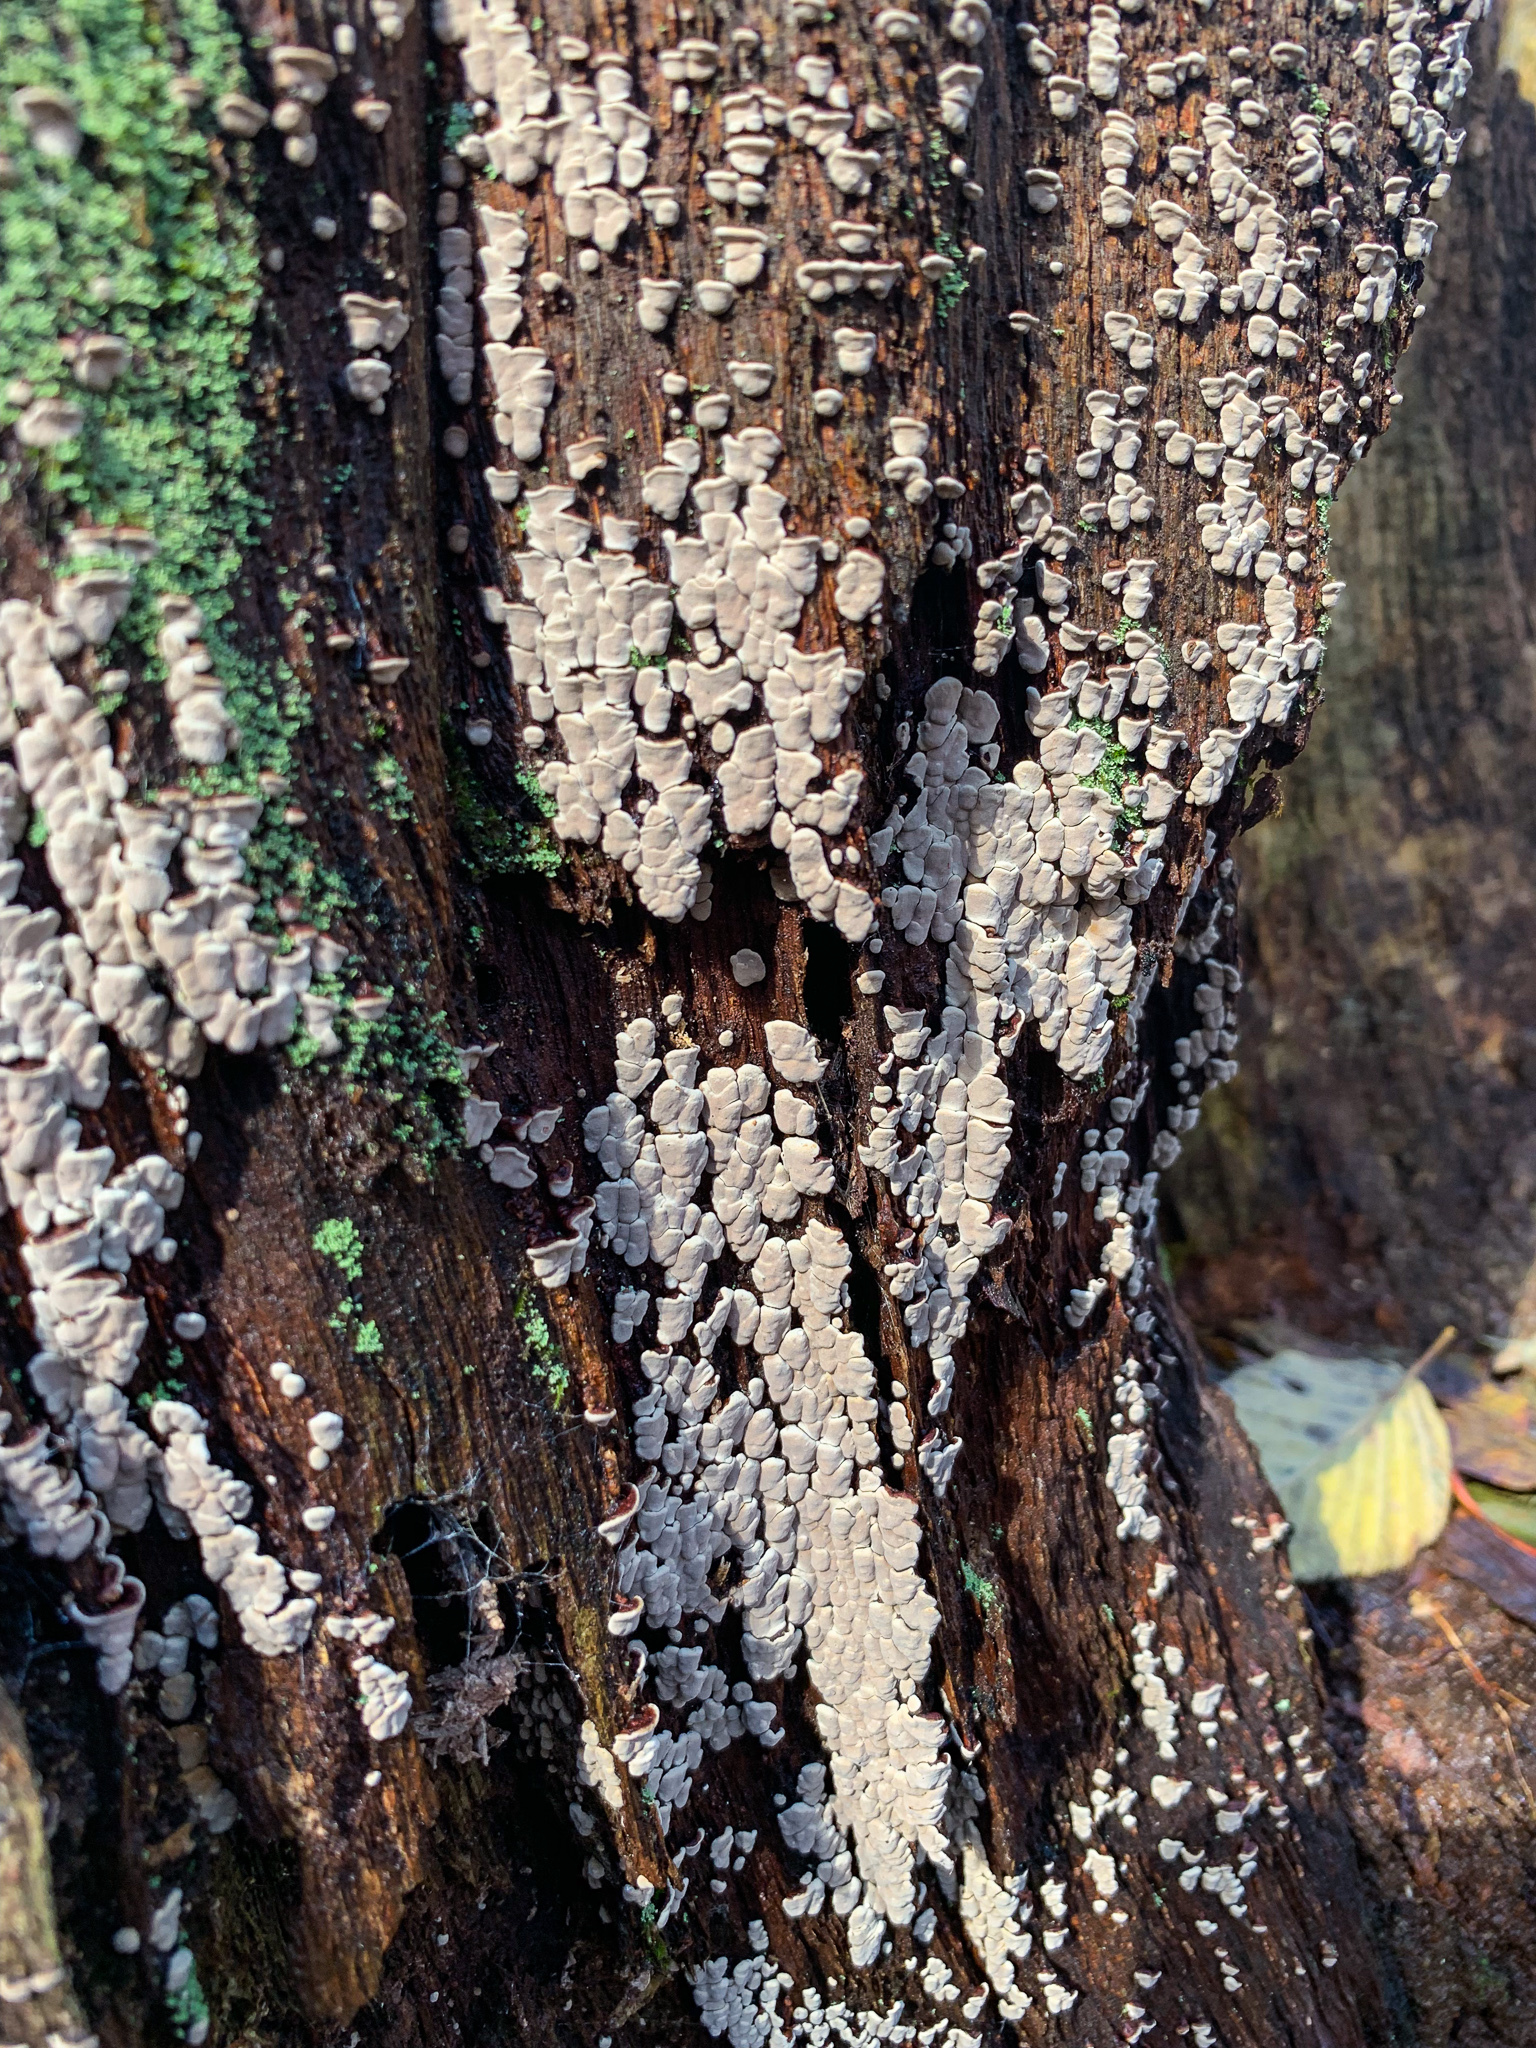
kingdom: Fungi
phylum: Basidiomycota
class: Agaricomycetes
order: Russulales
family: Stereaceae
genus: Xylobolus
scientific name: Xylobolus frustulatus
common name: Ceramic parchment
